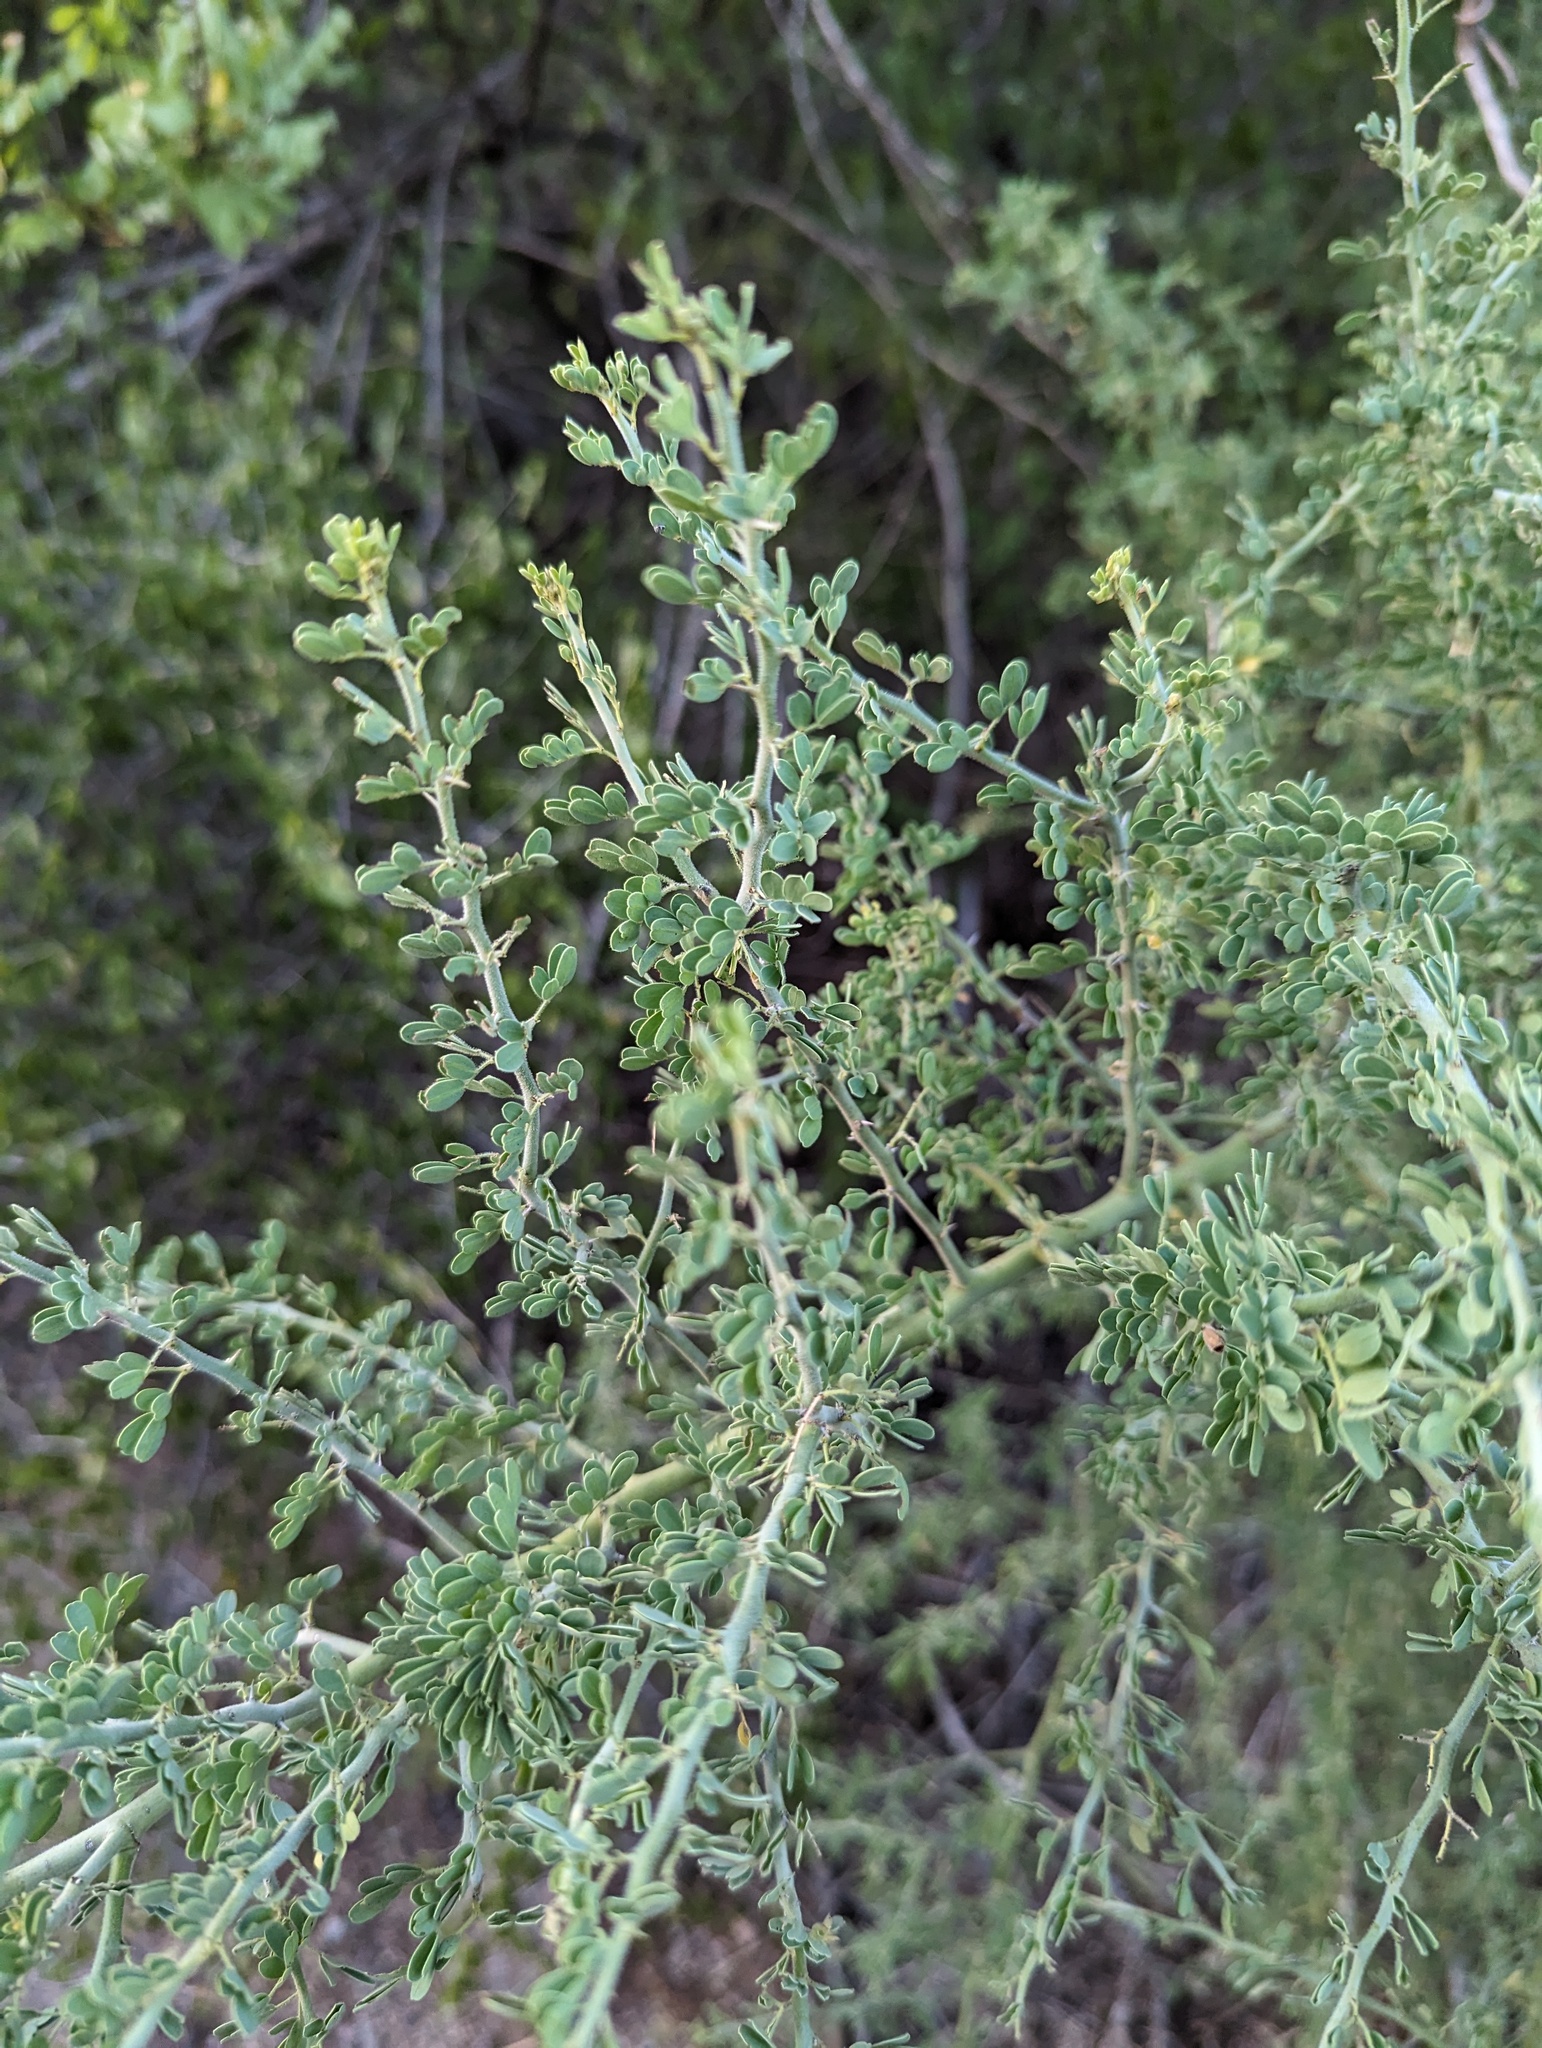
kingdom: Plantae
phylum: Tracheophyta
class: Magnoliopsida
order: Fabales
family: Fabaceae
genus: Parkinsonia
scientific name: Parkinsonia florida
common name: Blue paloverde
